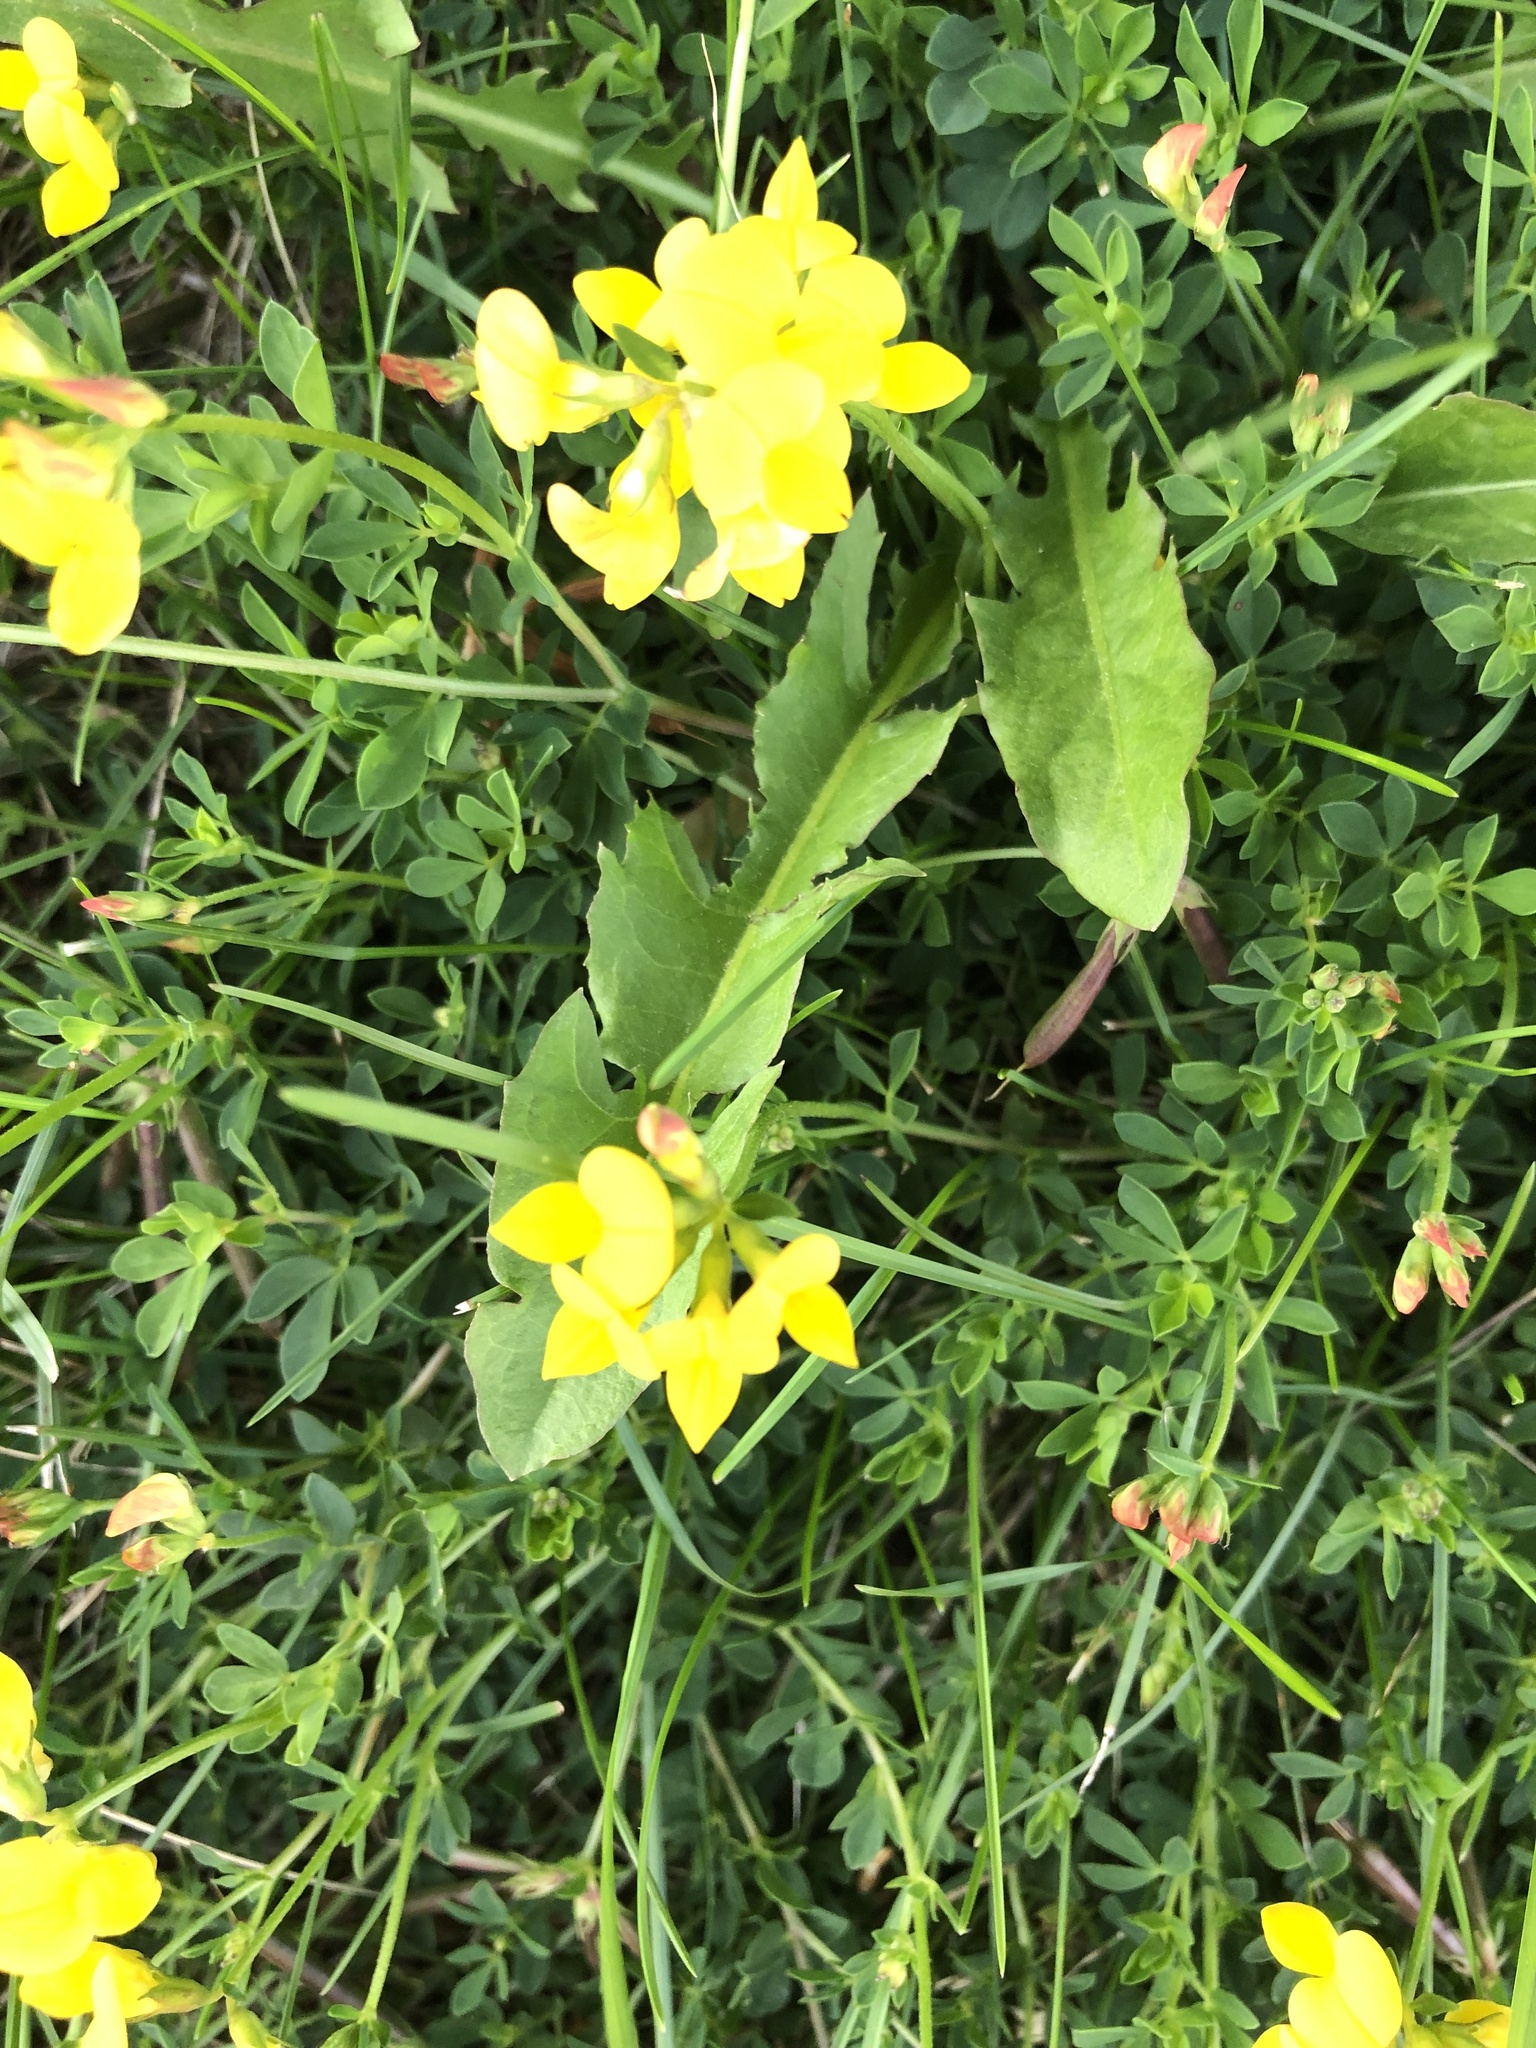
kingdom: Plantae
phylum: Tracheophyta
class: Magnoliopsida
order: Fabales
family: Fabaceae
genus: Lotus
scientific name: Lotus corniculatus
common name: Common bird's-foot-trefoil
